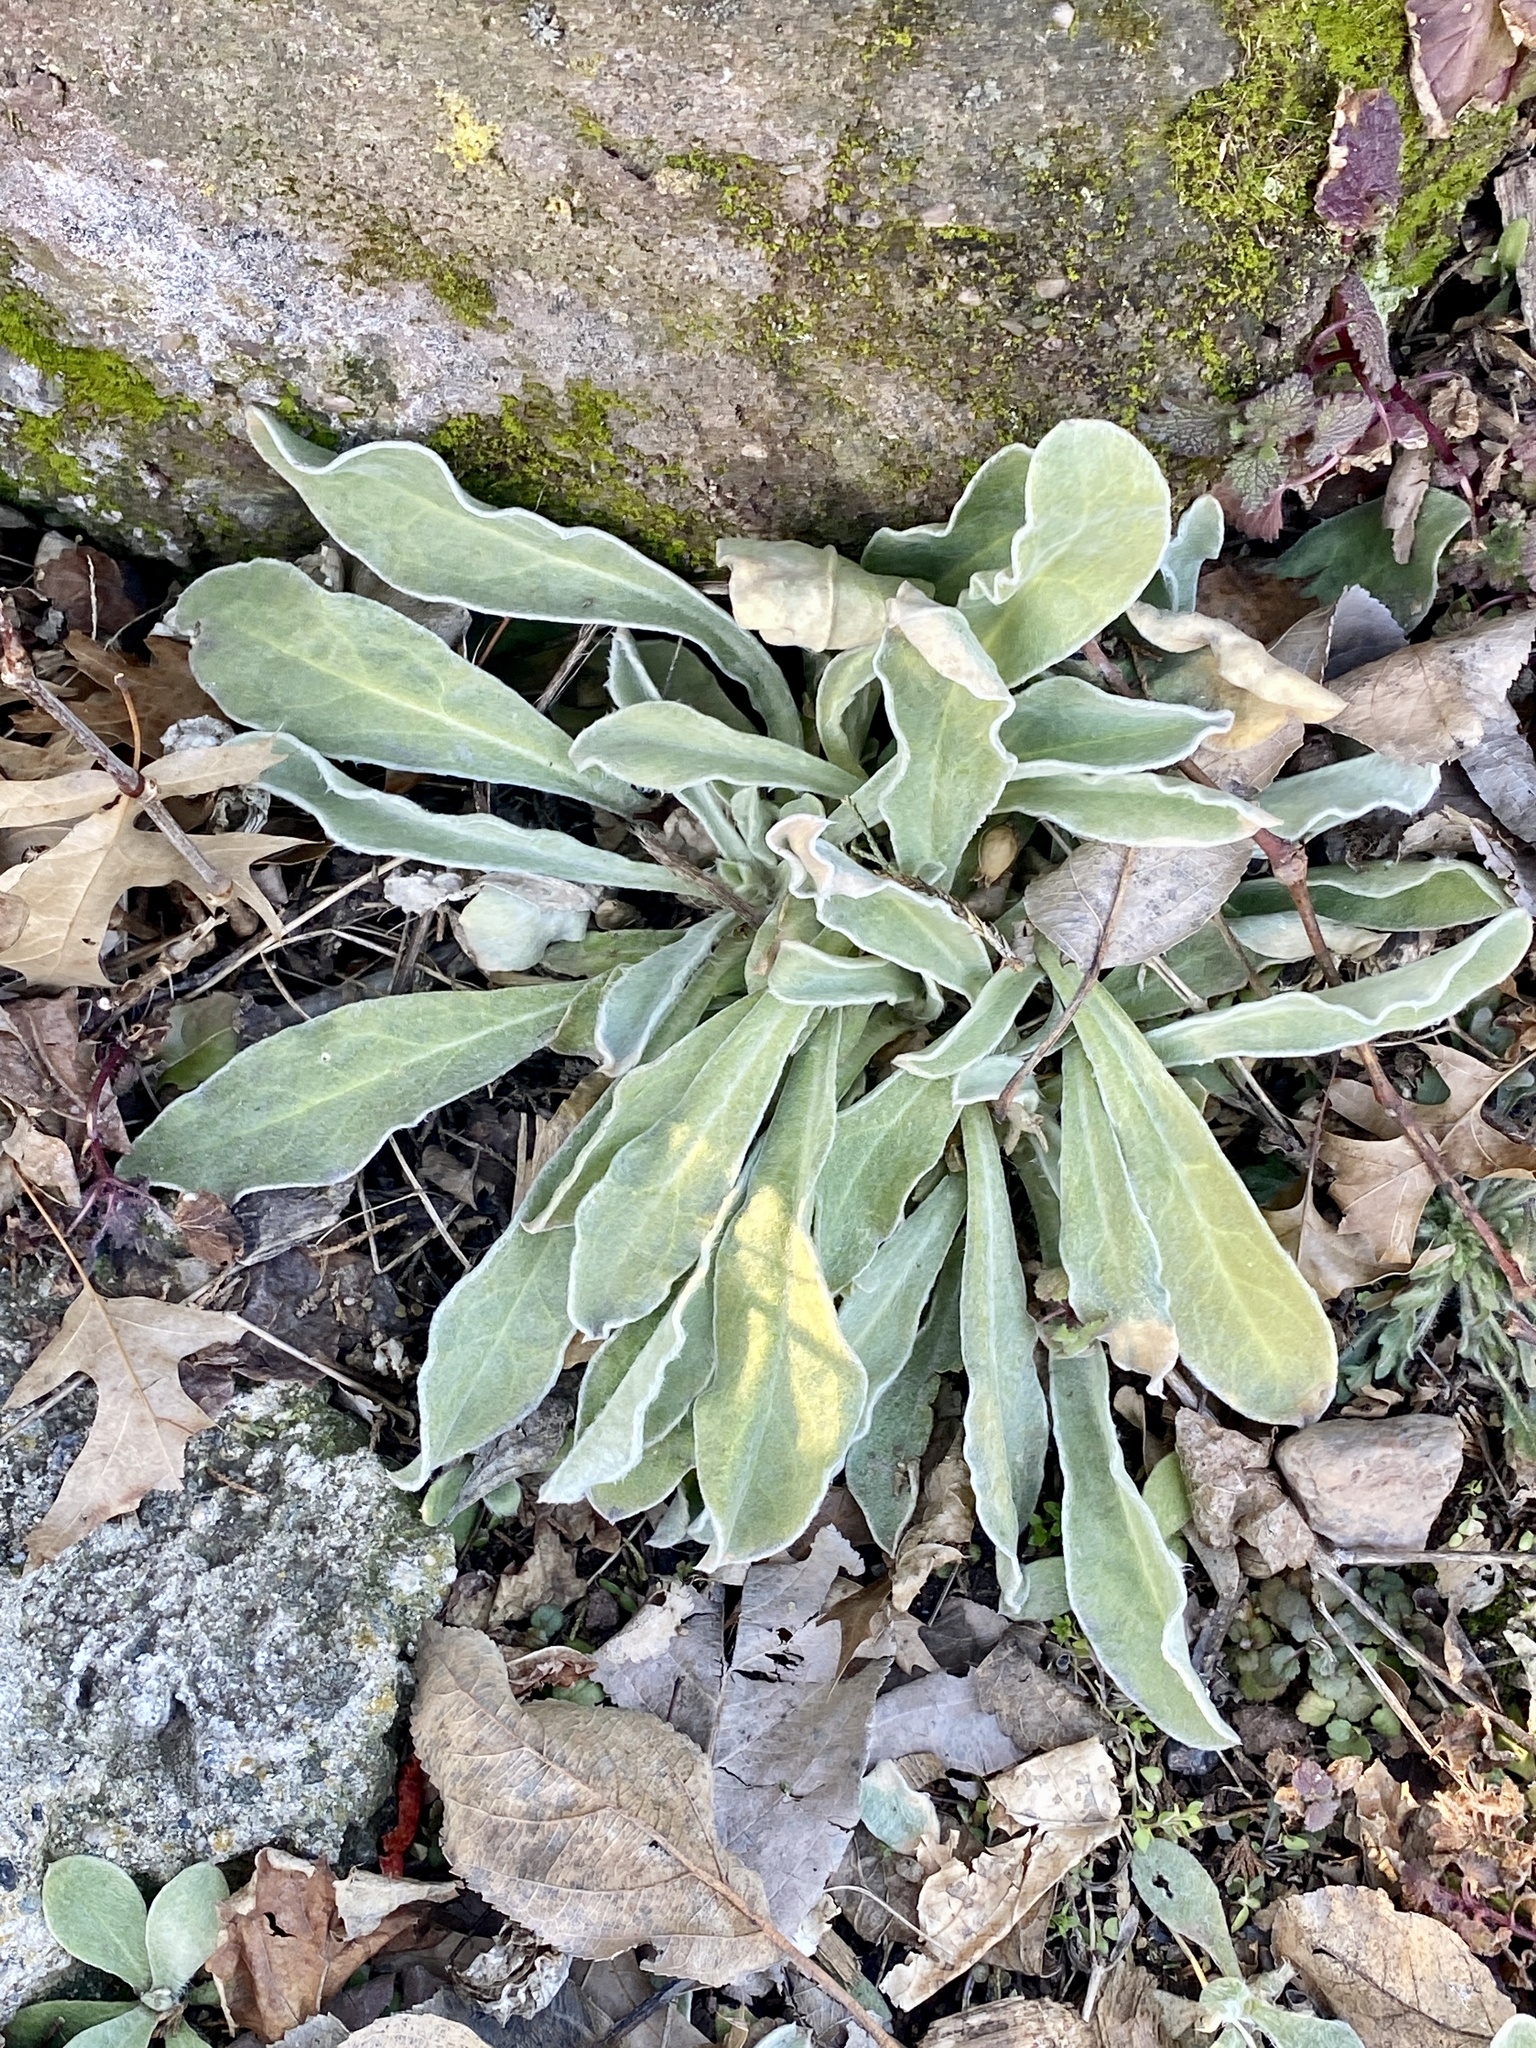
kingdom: Plantae
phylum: Tracheophyta
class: Magnoliopsida
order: Caryophyllales
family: Caryophyllaceae
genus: Silene
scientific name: Silene coronaria
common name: Rose campion
